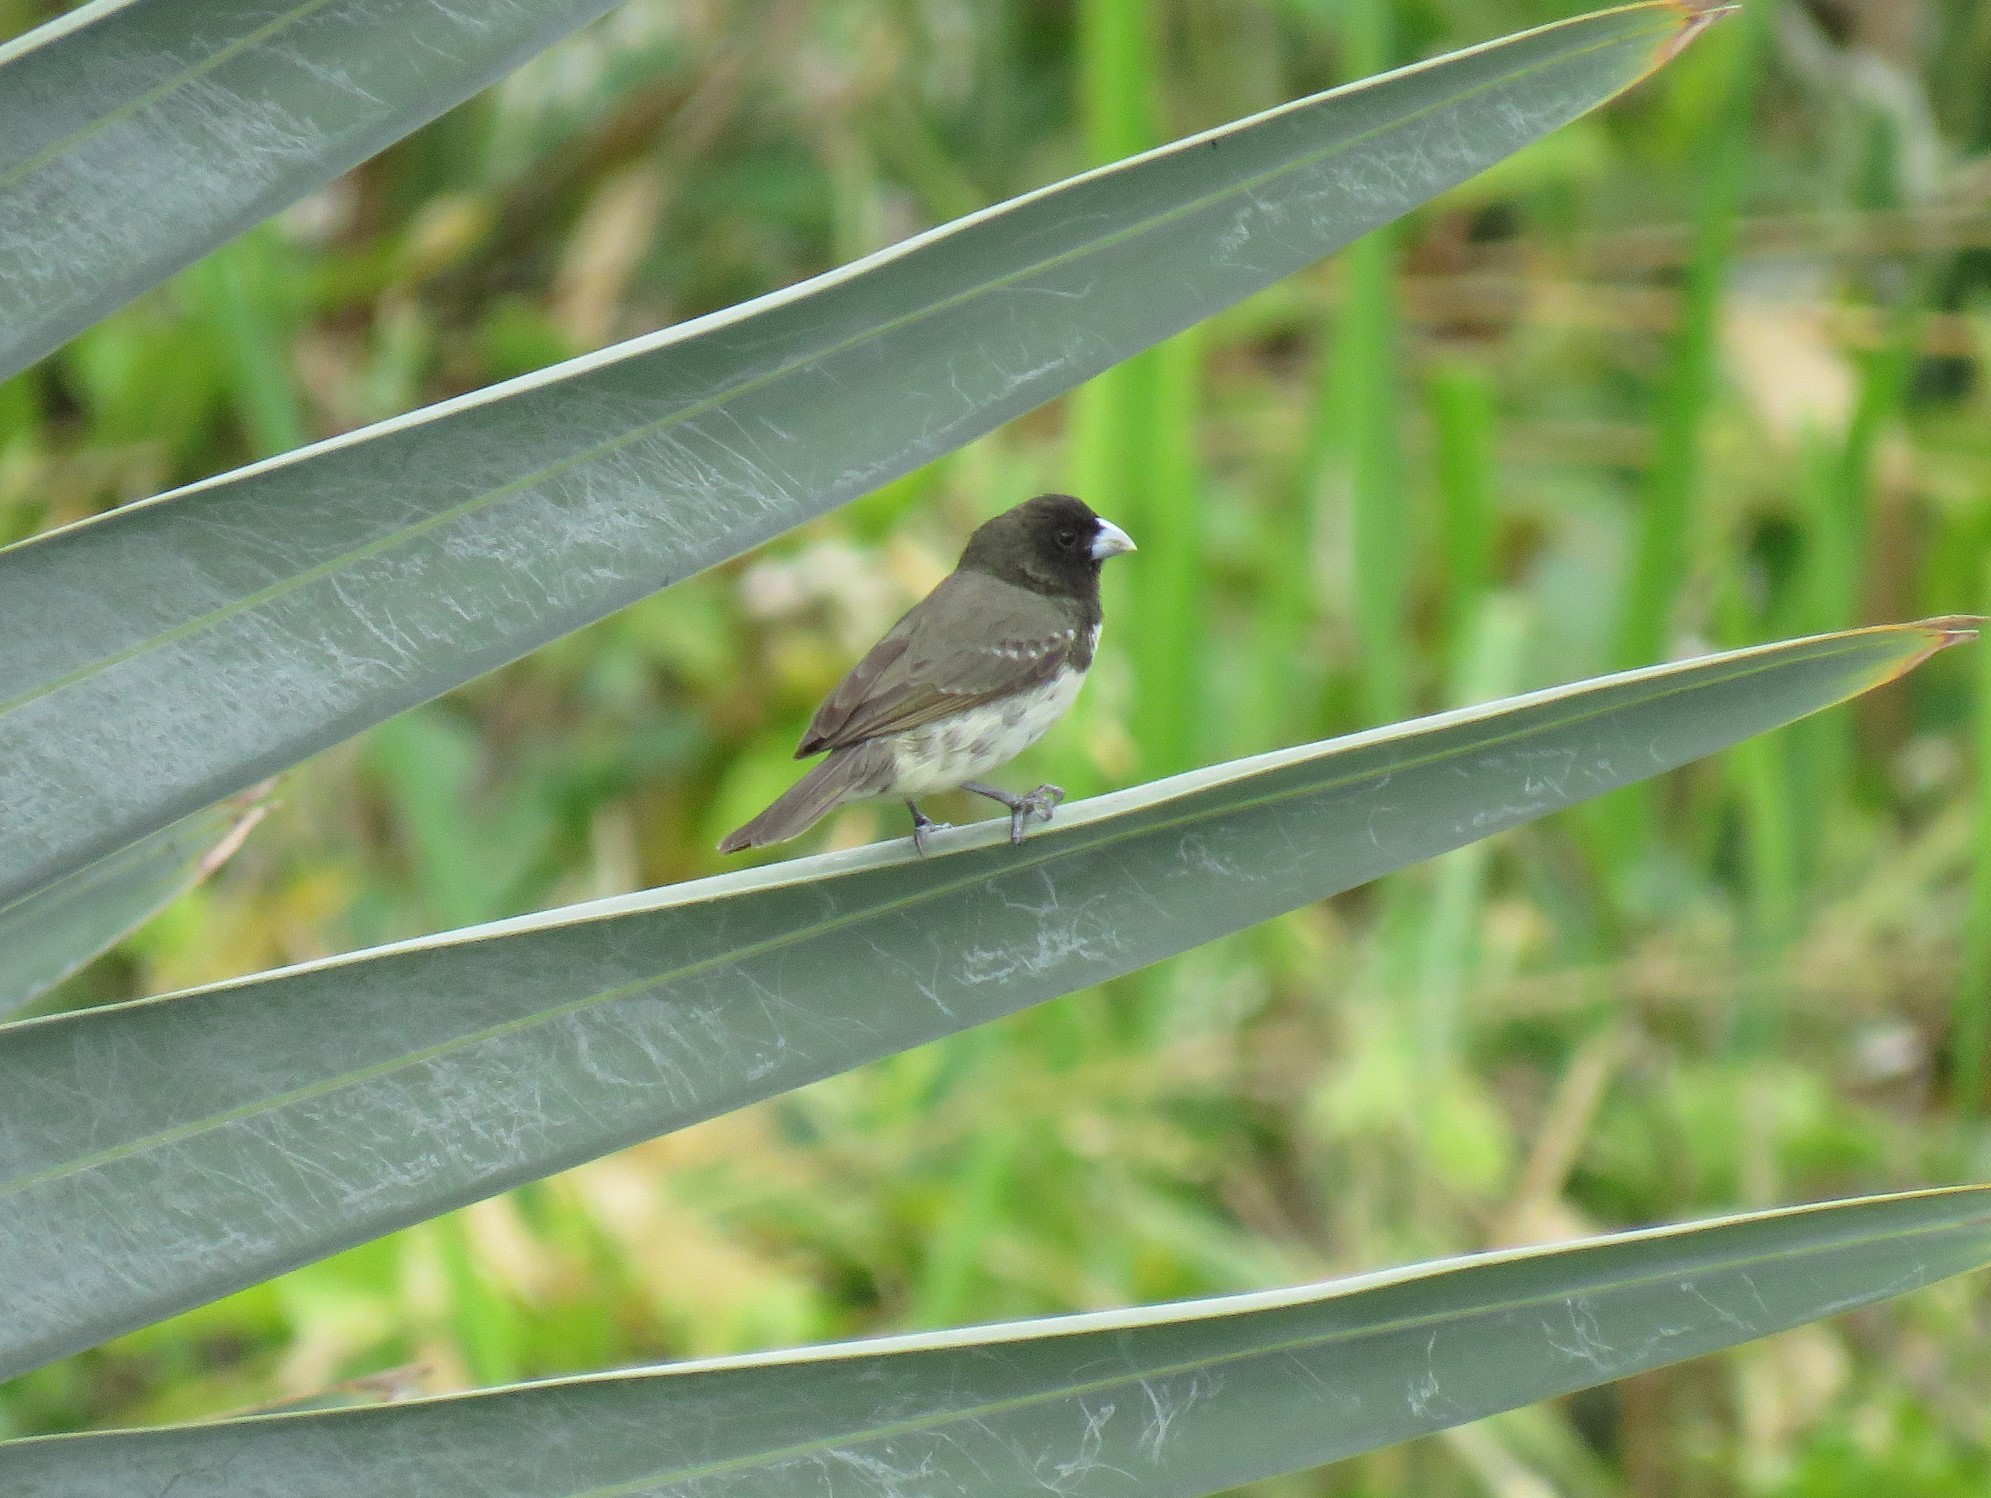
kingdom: Animalia
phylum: Chordata
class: Aves
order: Passeriformes
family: Thraupidae
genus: Sporophila
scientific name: Sporophila nigricollis
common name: Yellow-bellied seedeater
